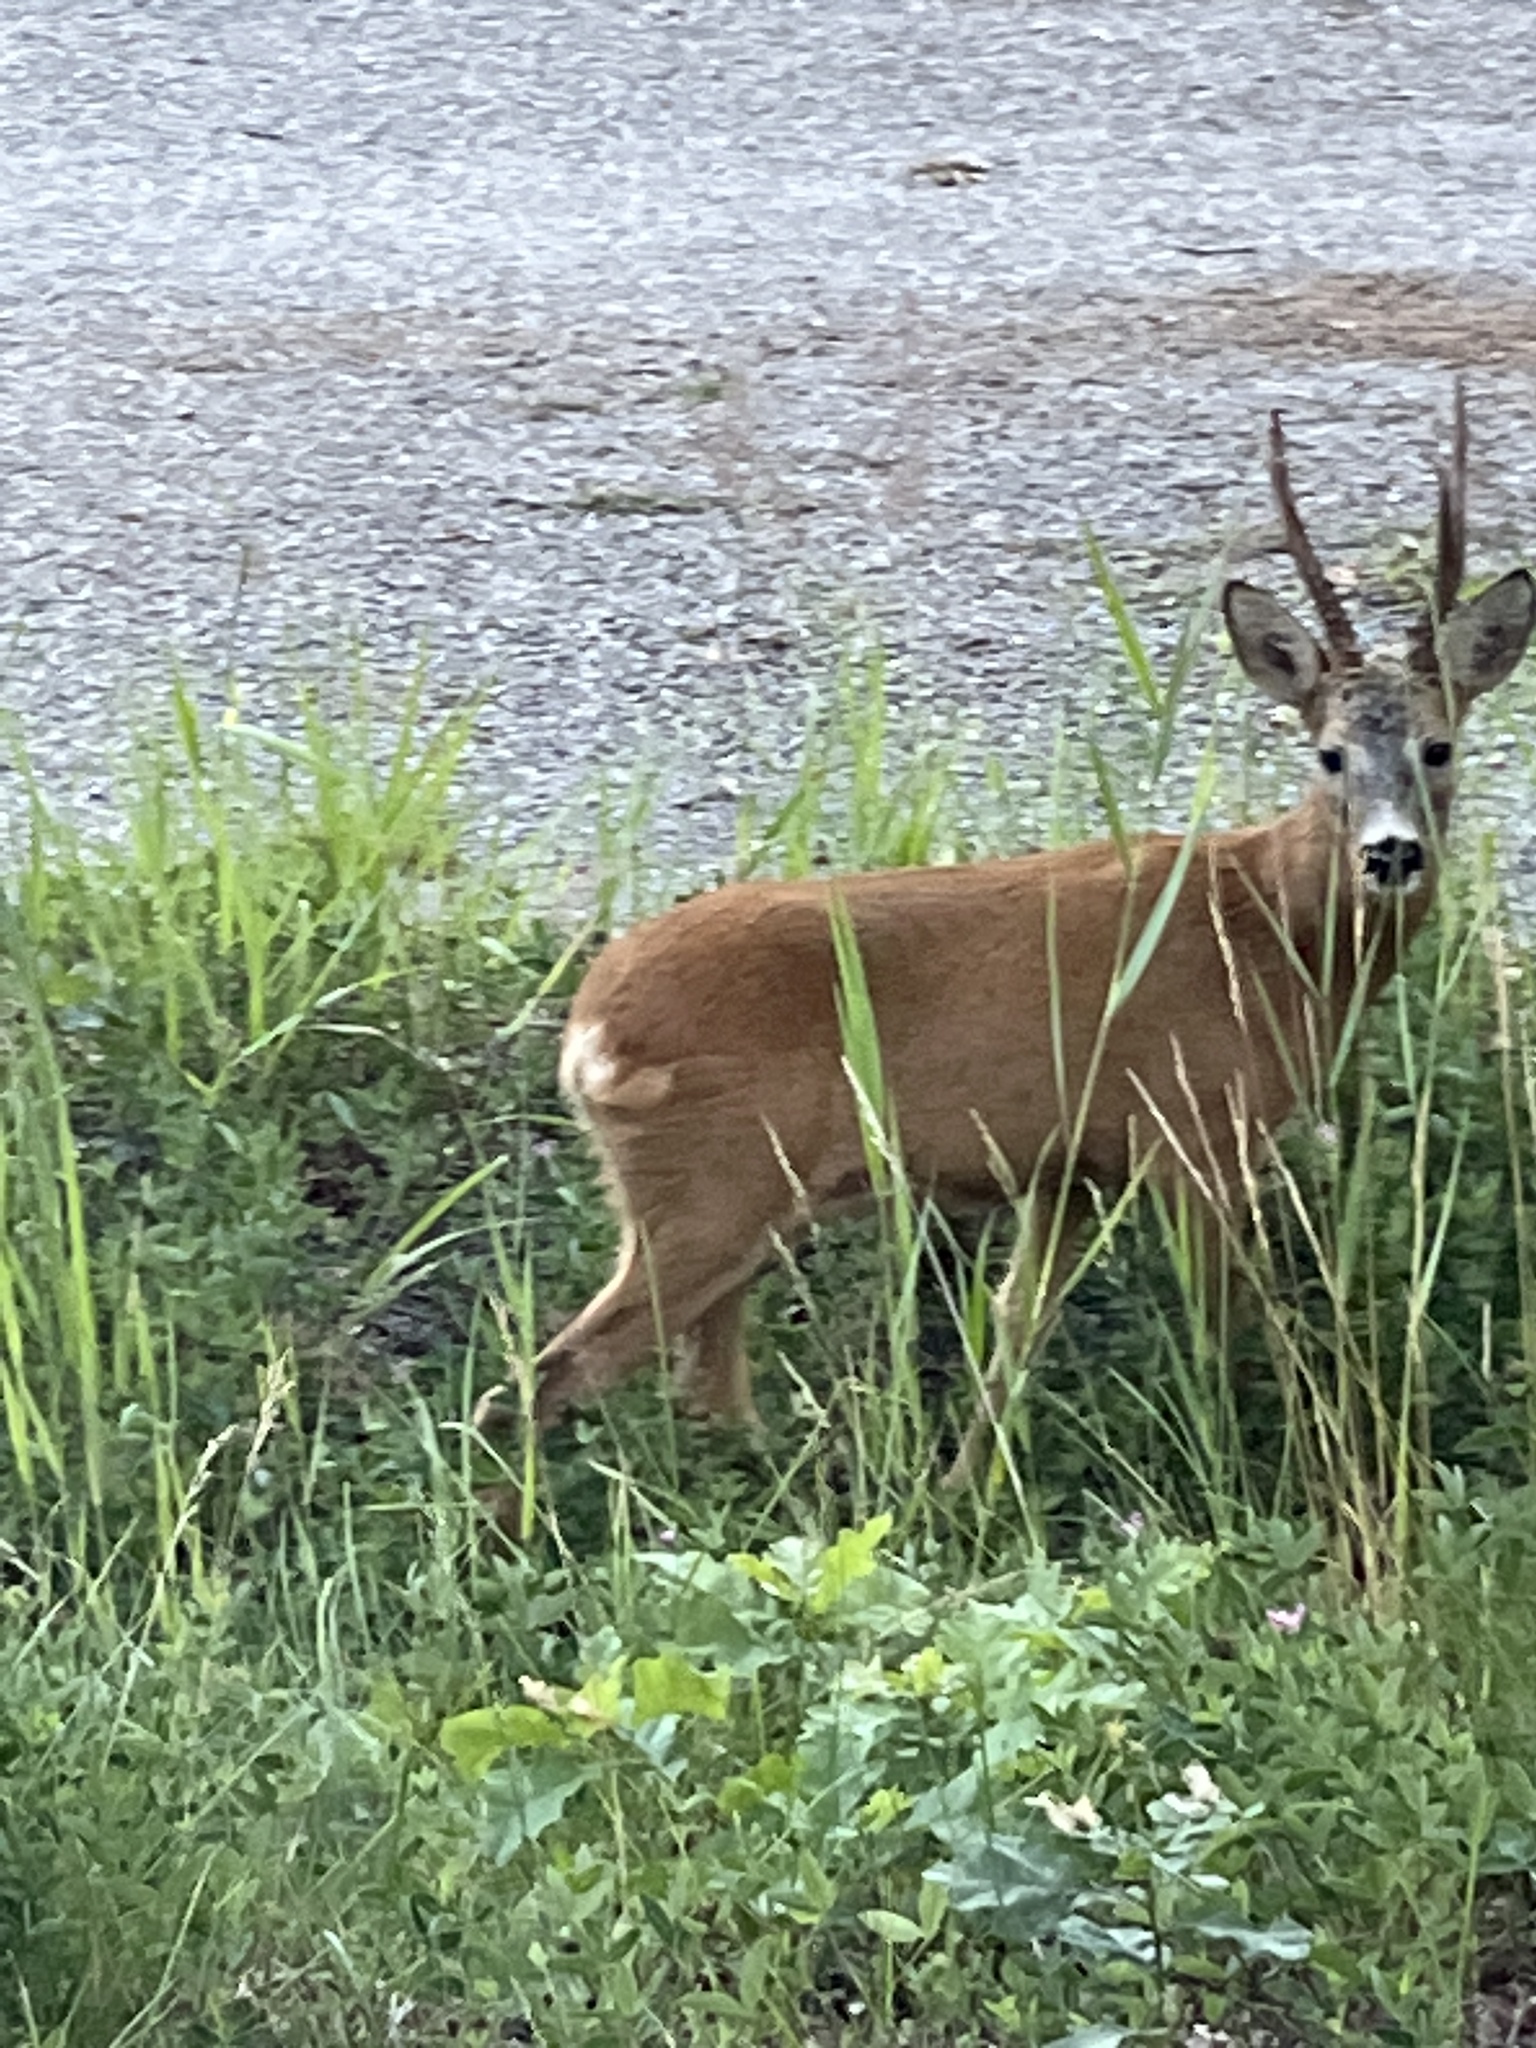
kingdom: Animalia
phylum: Chordata
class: Mammalia
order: Artiodactyla
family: Cervidae
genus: Capreolus
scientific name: Capreolus capreolus
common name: Western roe deer
